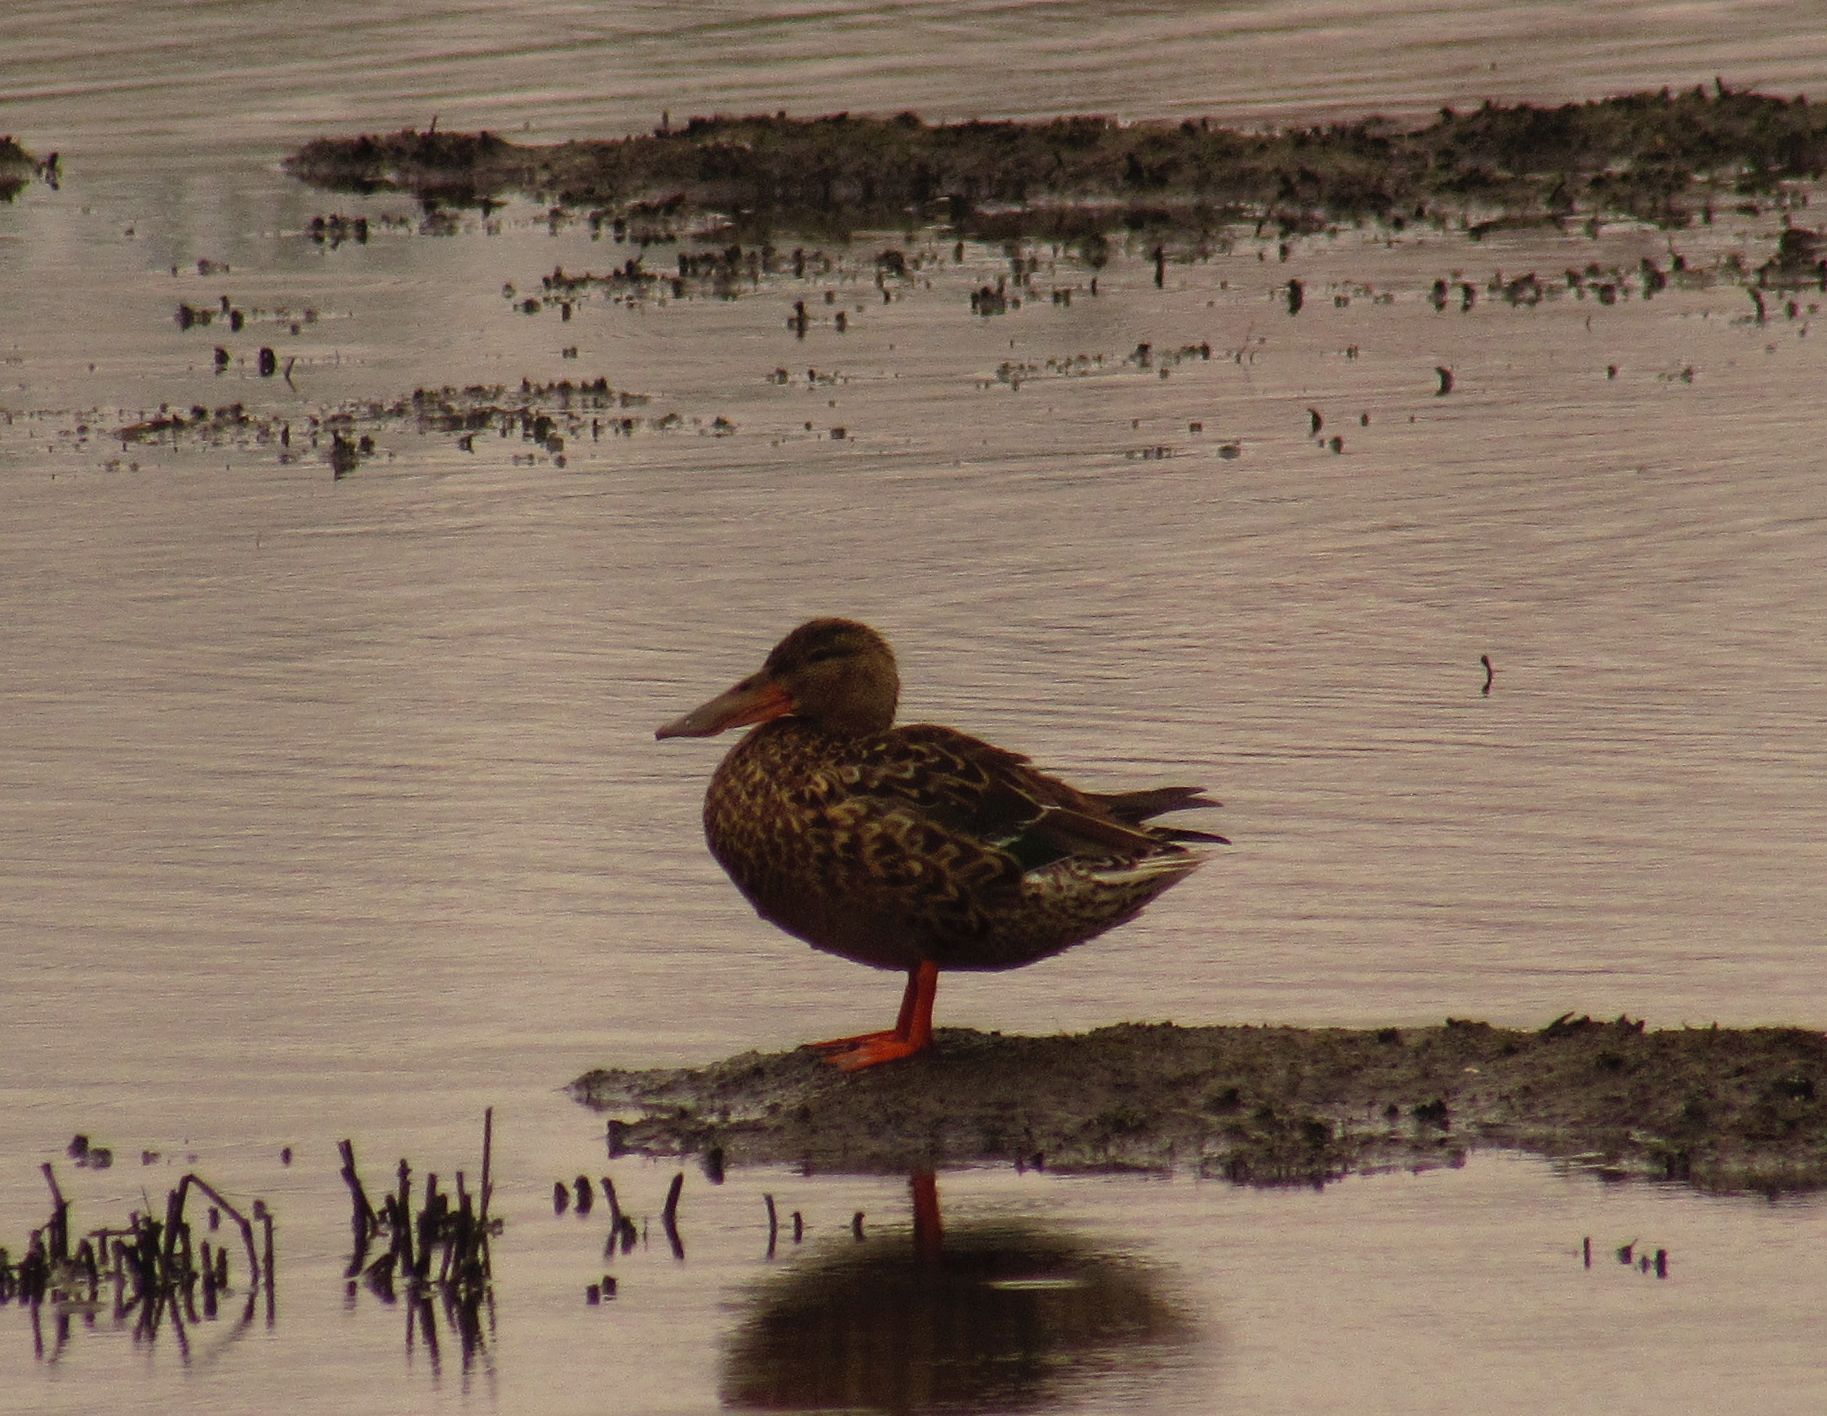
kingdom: Animalia
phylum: Chordata
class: Aves
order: Anseriformes
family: Anatidae
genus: Spatula
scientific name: Spatula clypeata
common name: Northern shoveler
